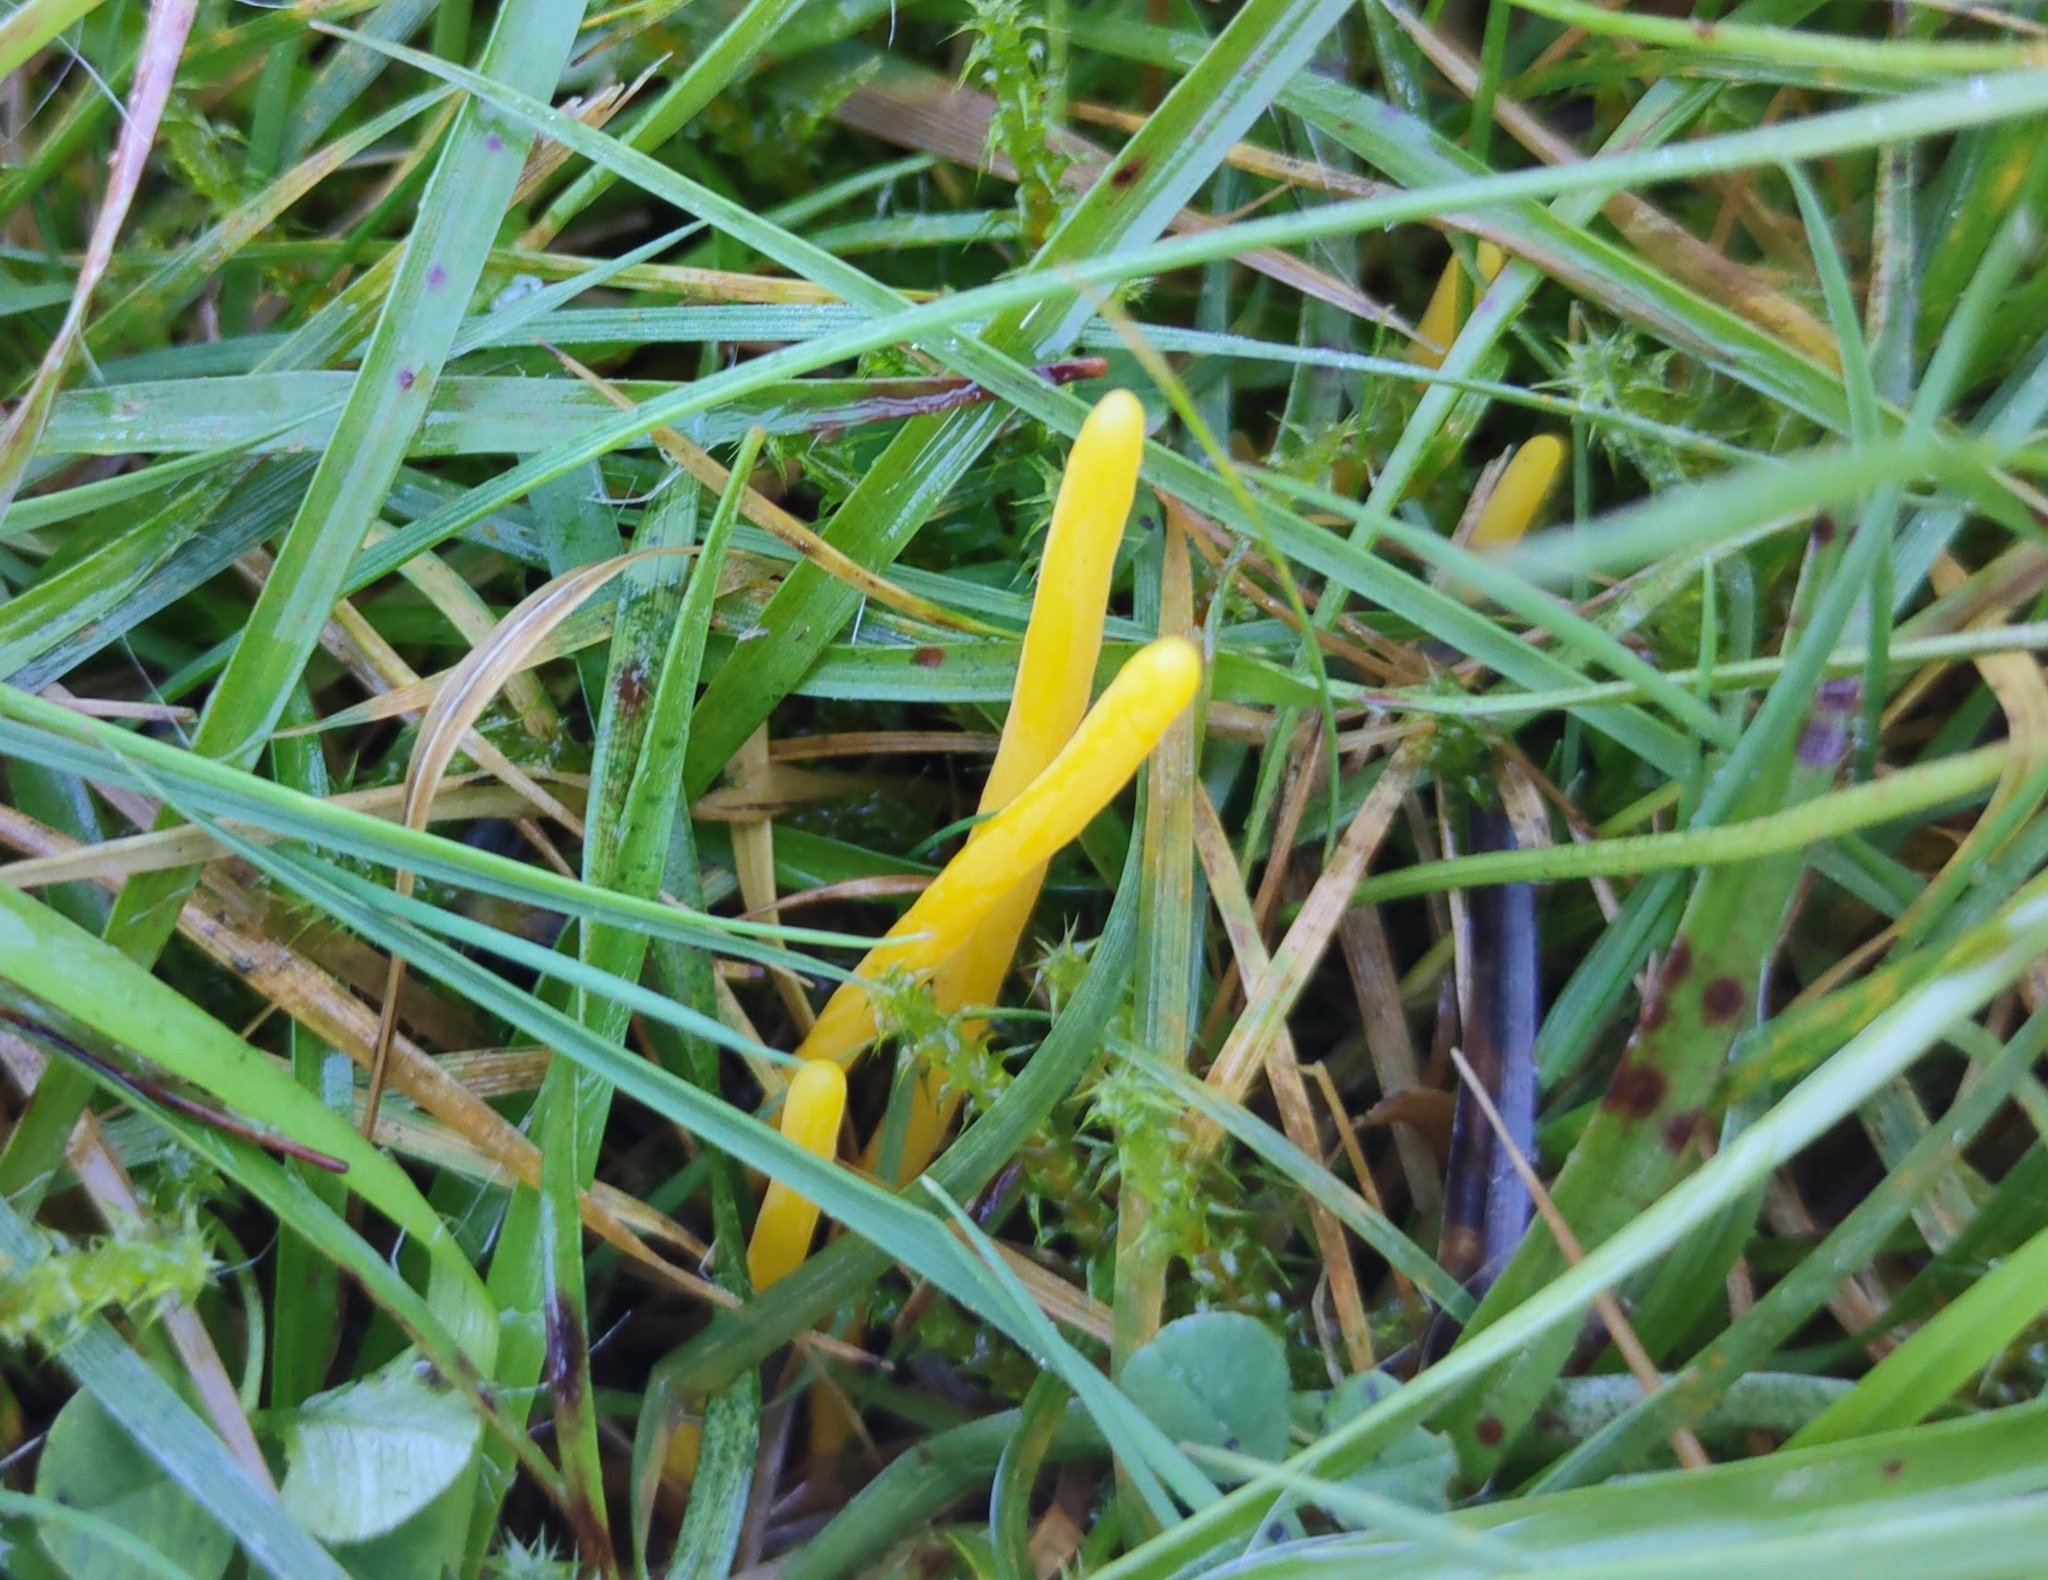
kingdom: Fungi
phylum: Basidiomycota
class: Agaricomycetes
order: Agaricales
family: Clavariaceae
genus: Clavulinopsis
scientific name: Clavulinopsis helvola
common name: Yellow club
